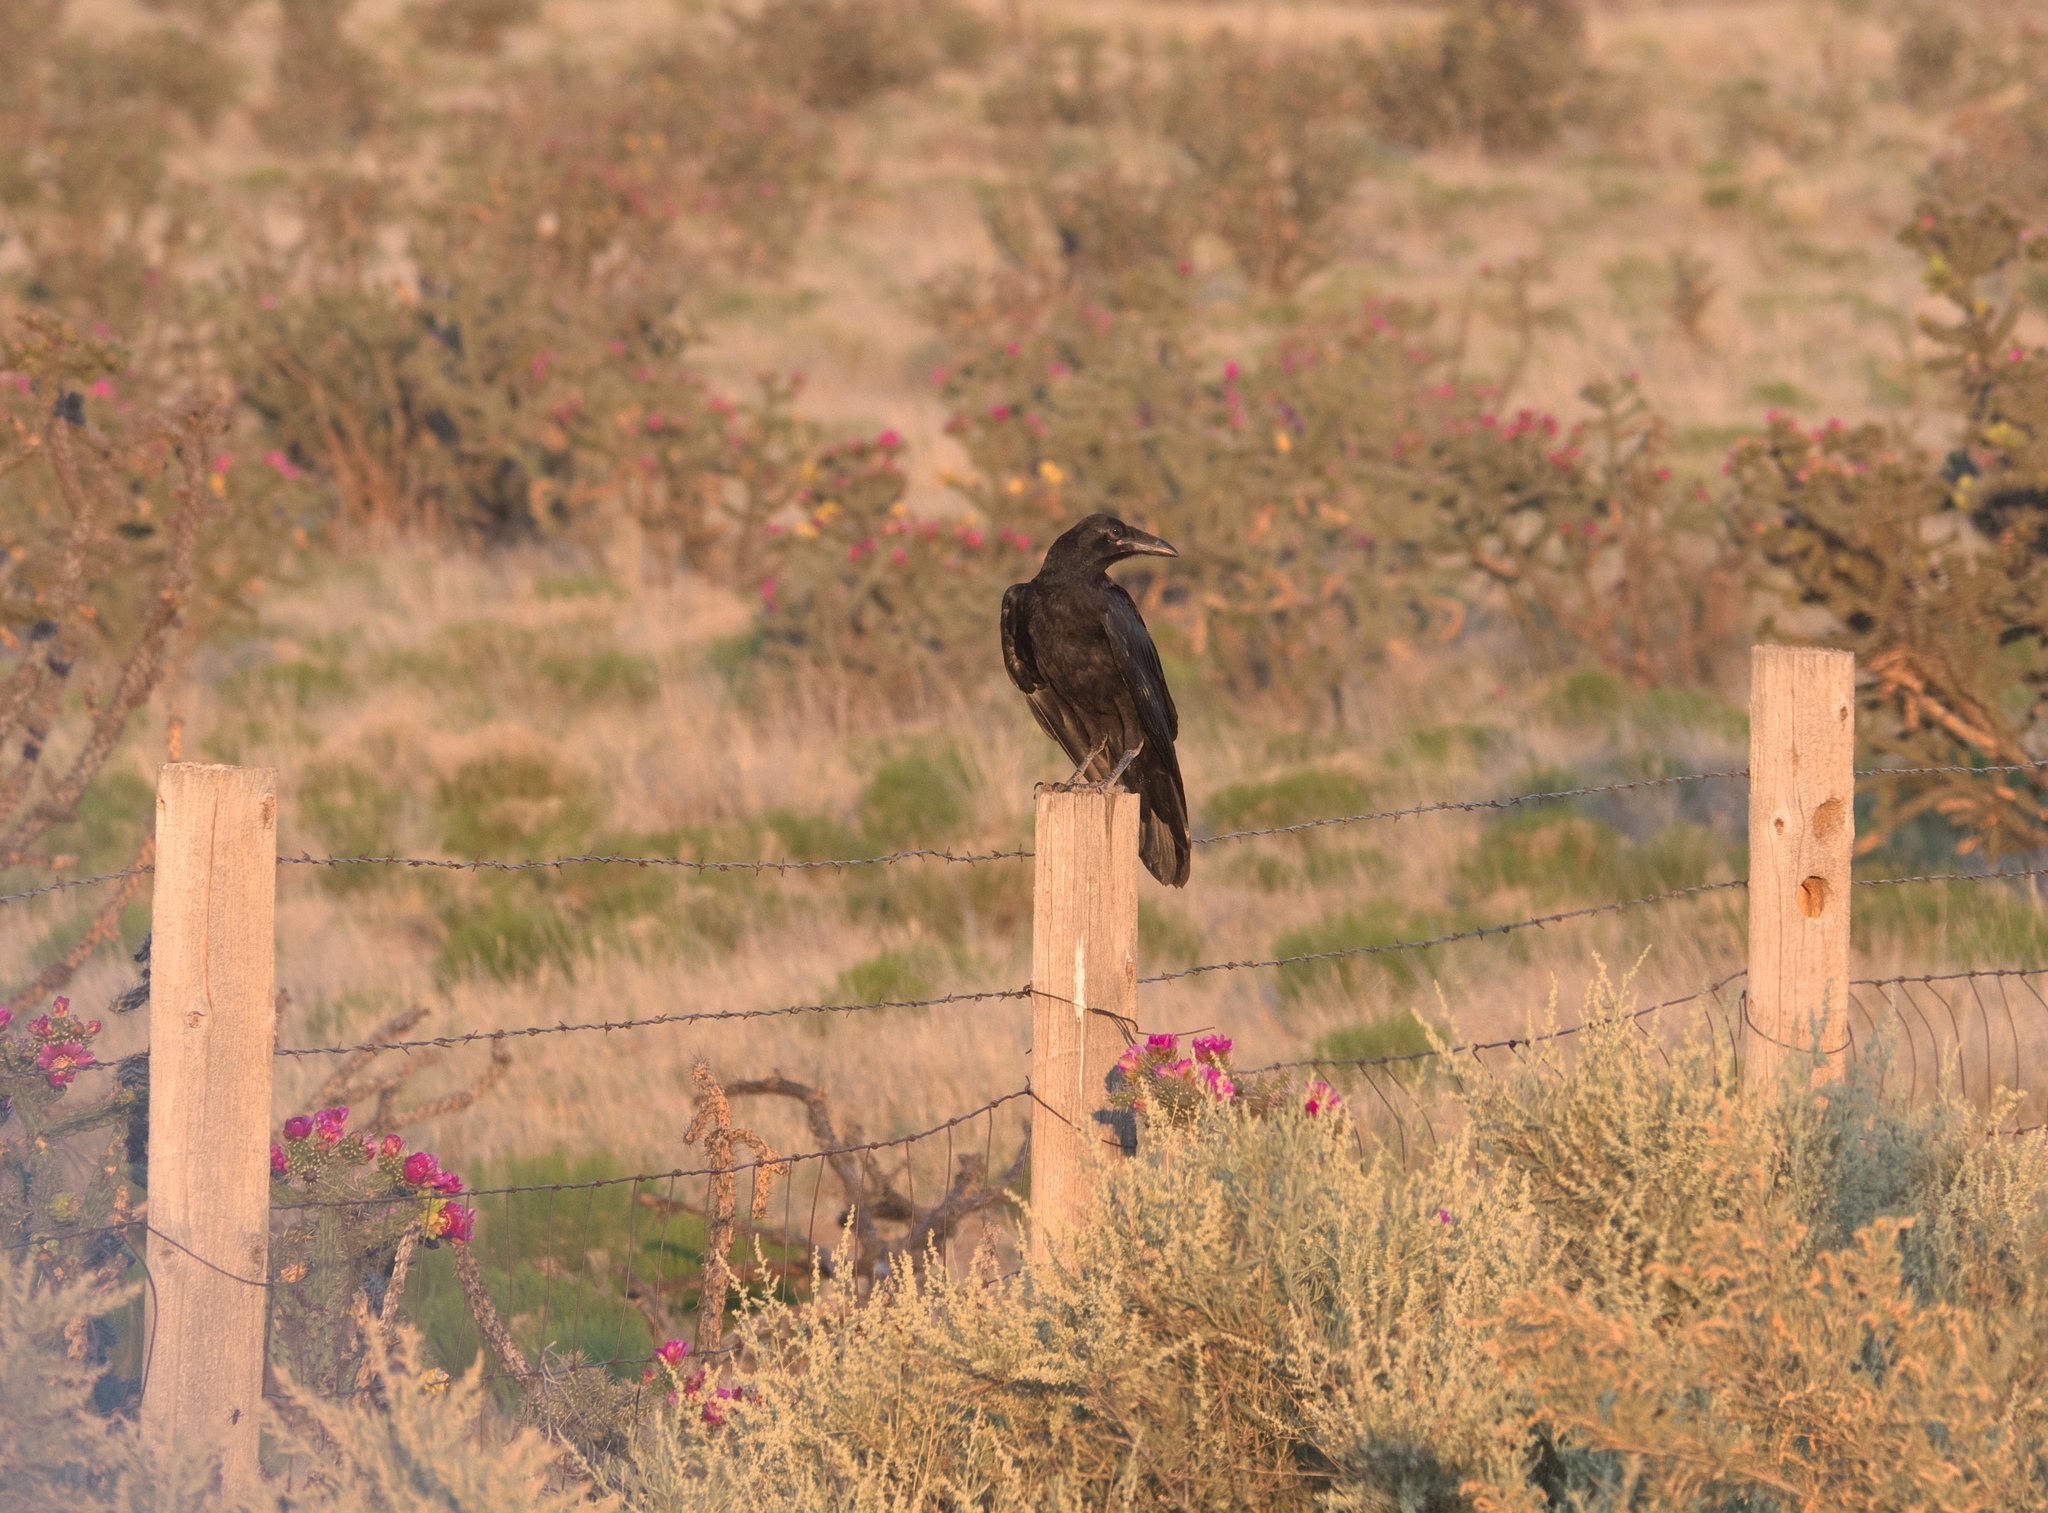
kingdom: Animalia
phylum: Chordata
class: Aves
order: Passeriformes
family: Corvidae
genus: Corvus
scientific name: Corvus corax
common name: Common raven
